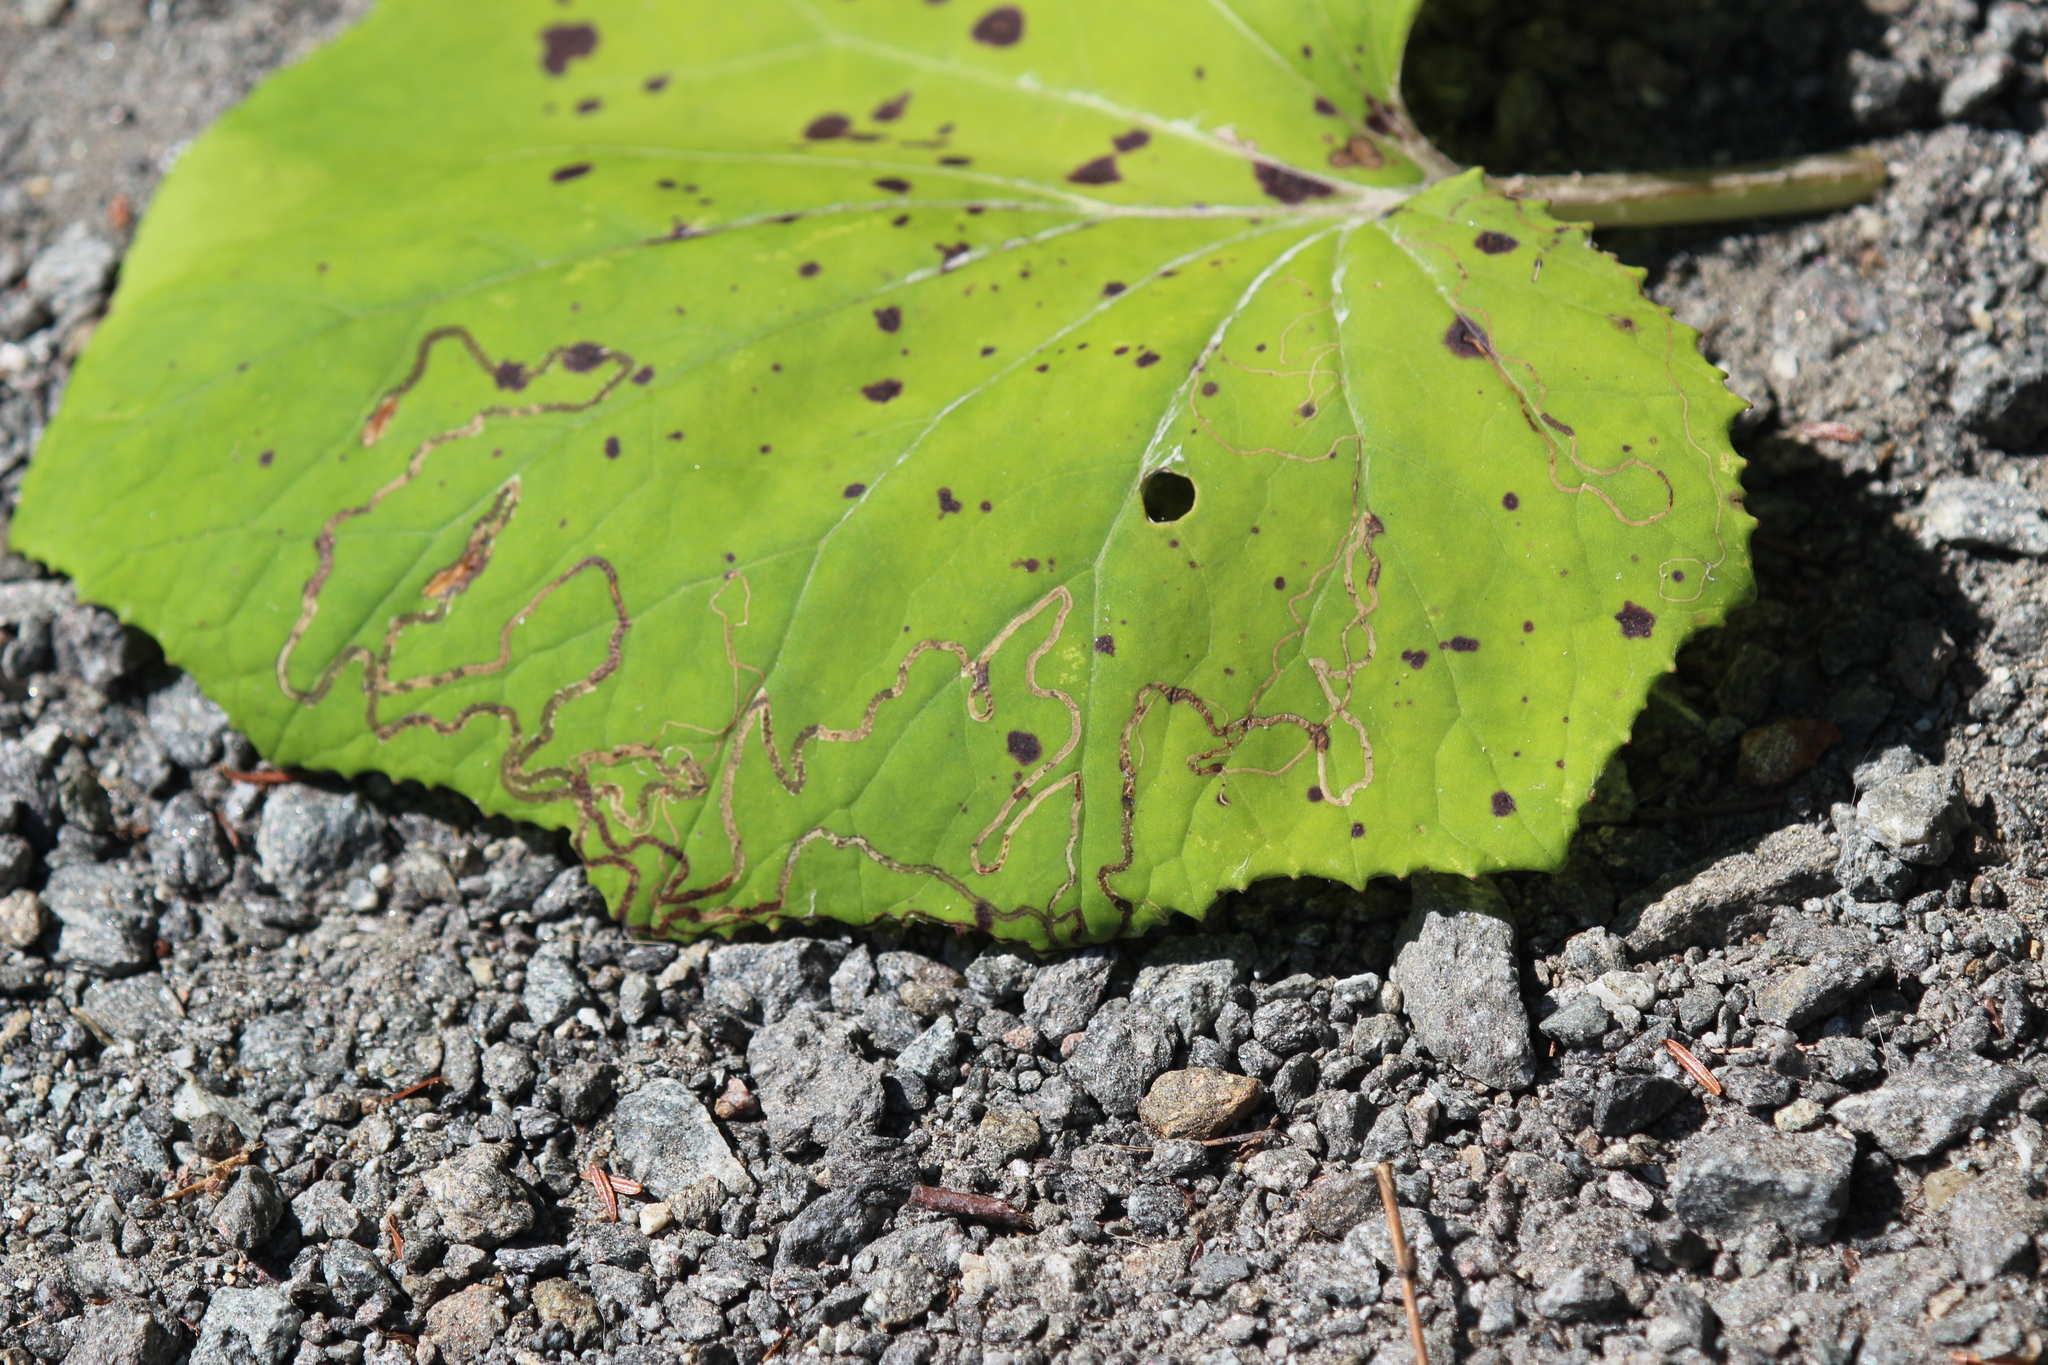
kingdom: Animalia
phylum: Arthropoda
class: Insecta
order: Lepidoptera
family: Gracillariidae
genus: Phyllocnistis
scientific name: Phyllocnistis insignis
